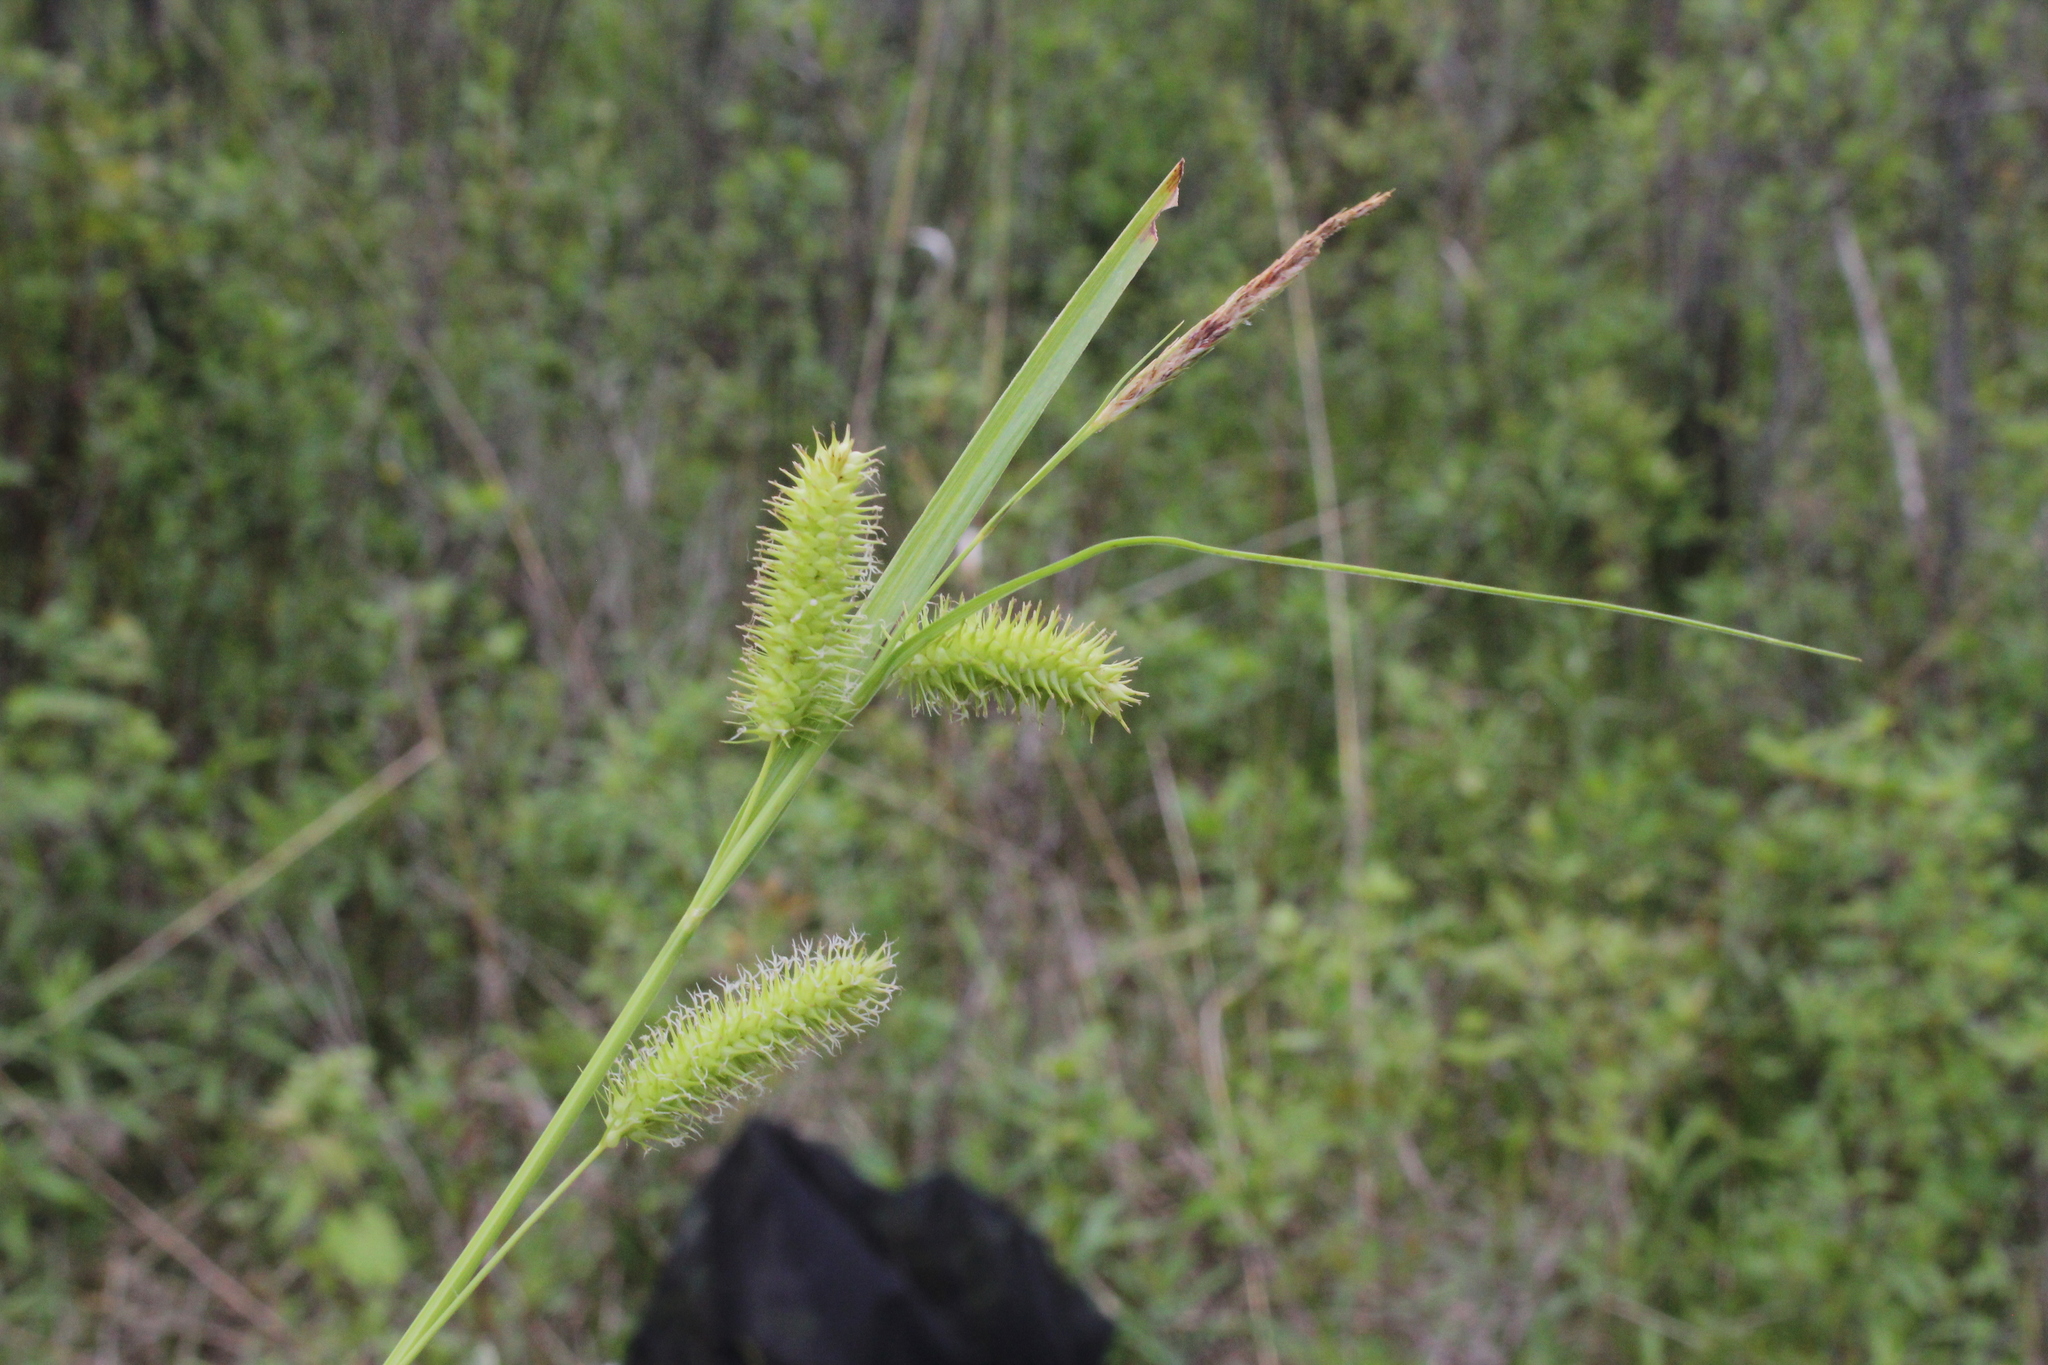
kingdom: Plantae
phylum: Tracheophyta
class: Liliopsida
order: Poales
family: Cyperaceae
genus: Carex
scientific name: Carex hystericina
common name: Bottlebrush sedge
